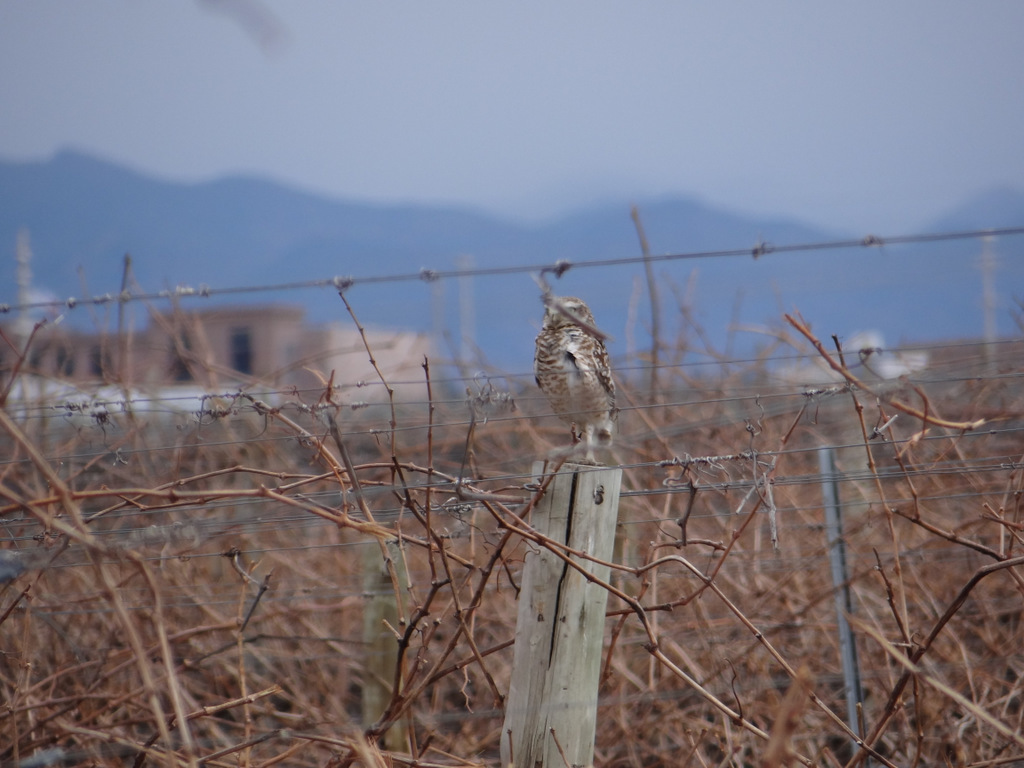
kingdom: Animalia
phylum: Chordata
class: Aves
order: Strigiformes
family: Strigidae
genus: Athene
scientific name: Athene cunicularia
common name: Burrowing owl
